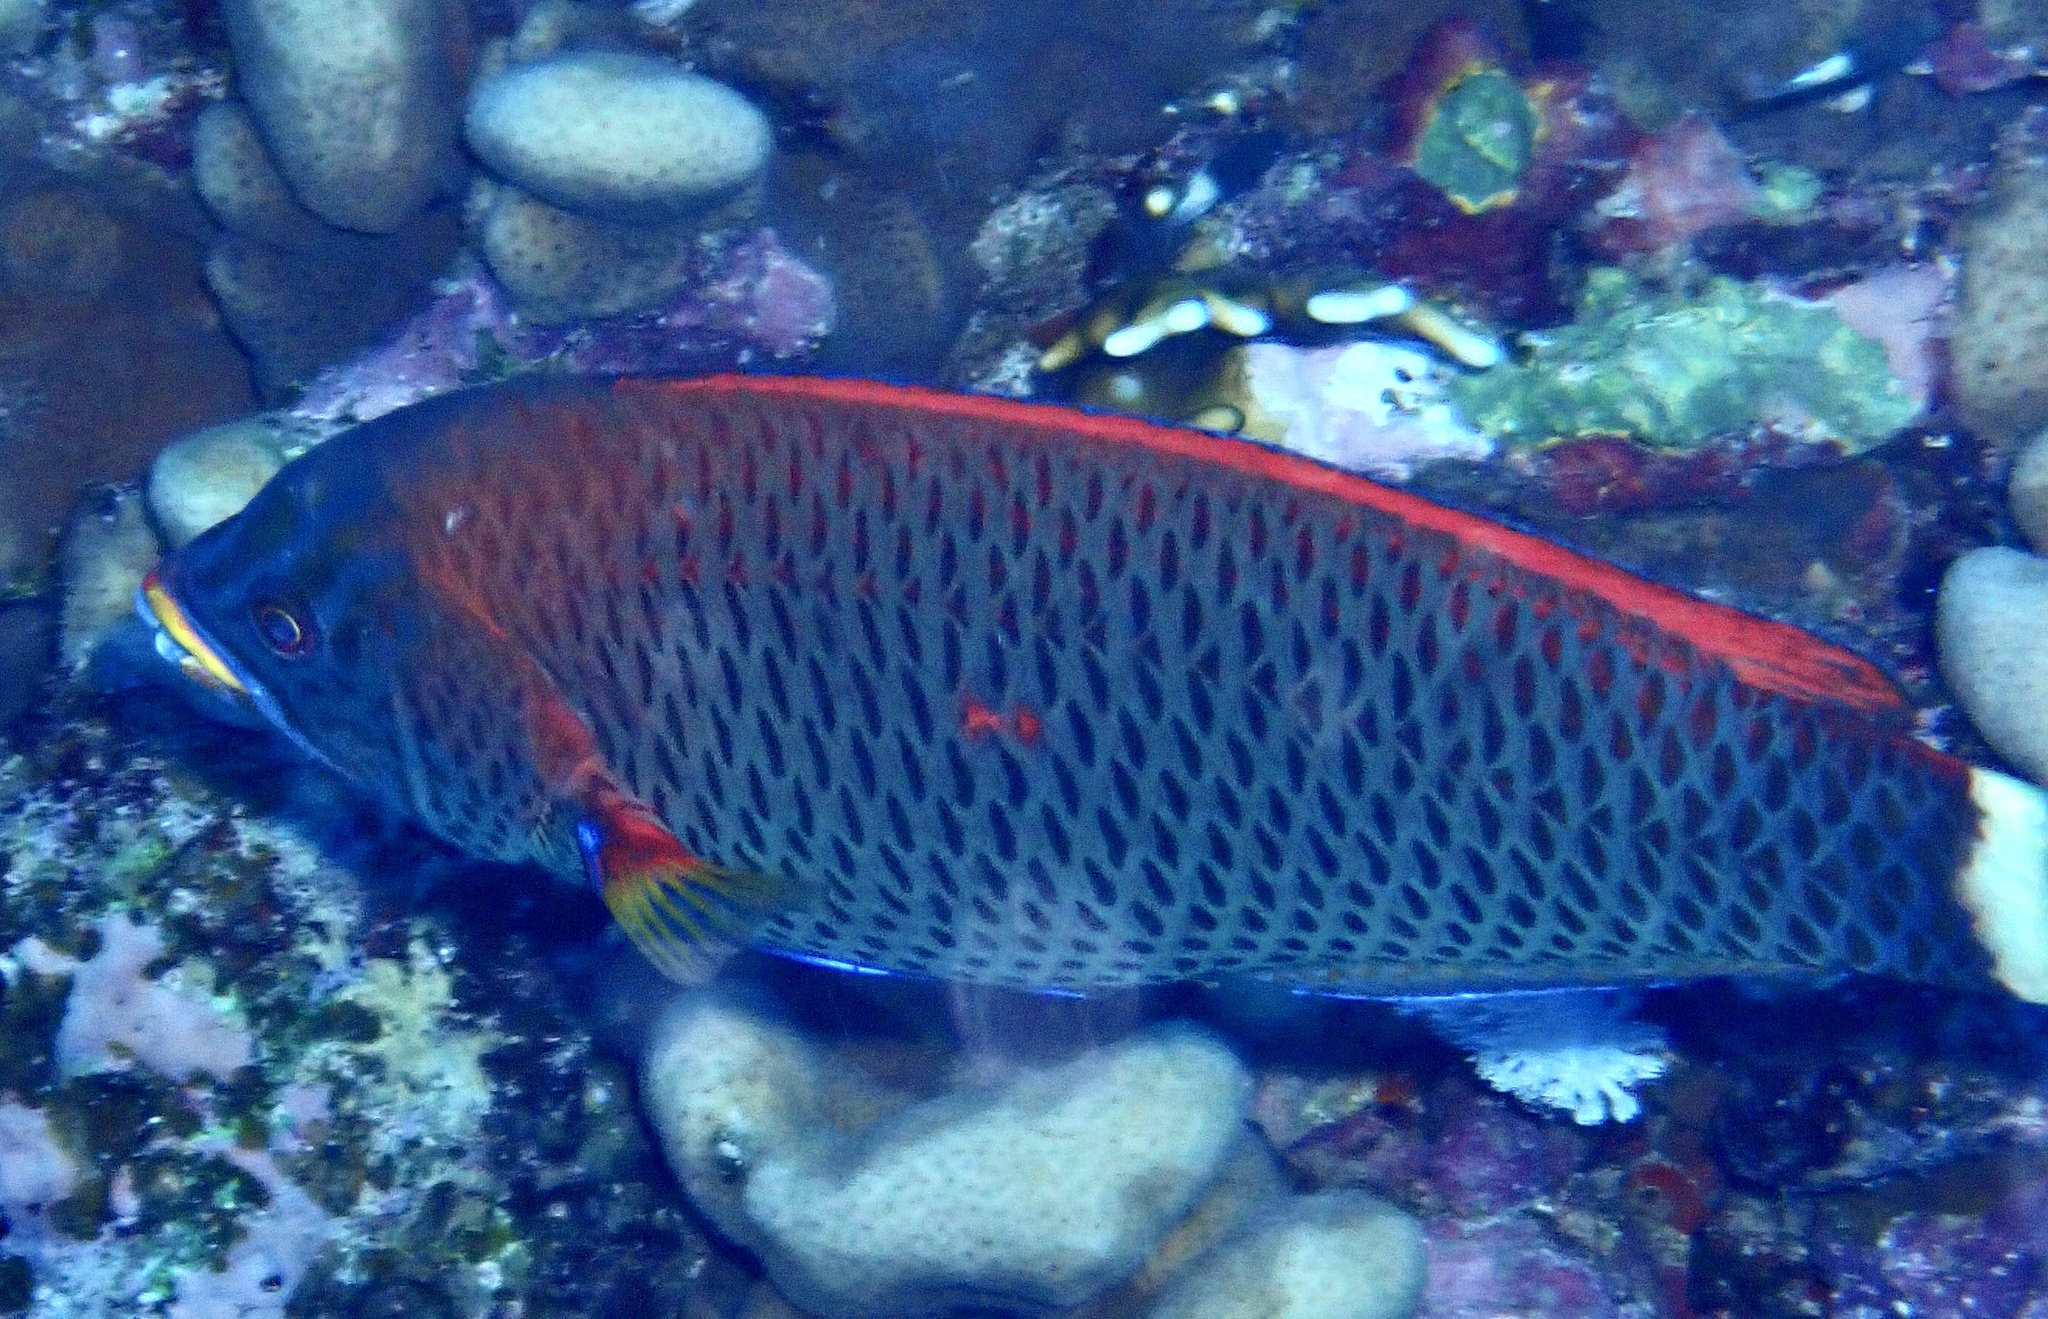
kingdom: Animalia
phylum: Chordata
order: Perciformes
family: Labridae
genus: Pseudodax
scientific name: Pseudodax moluccanus
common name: Chiseltooth wrasse
